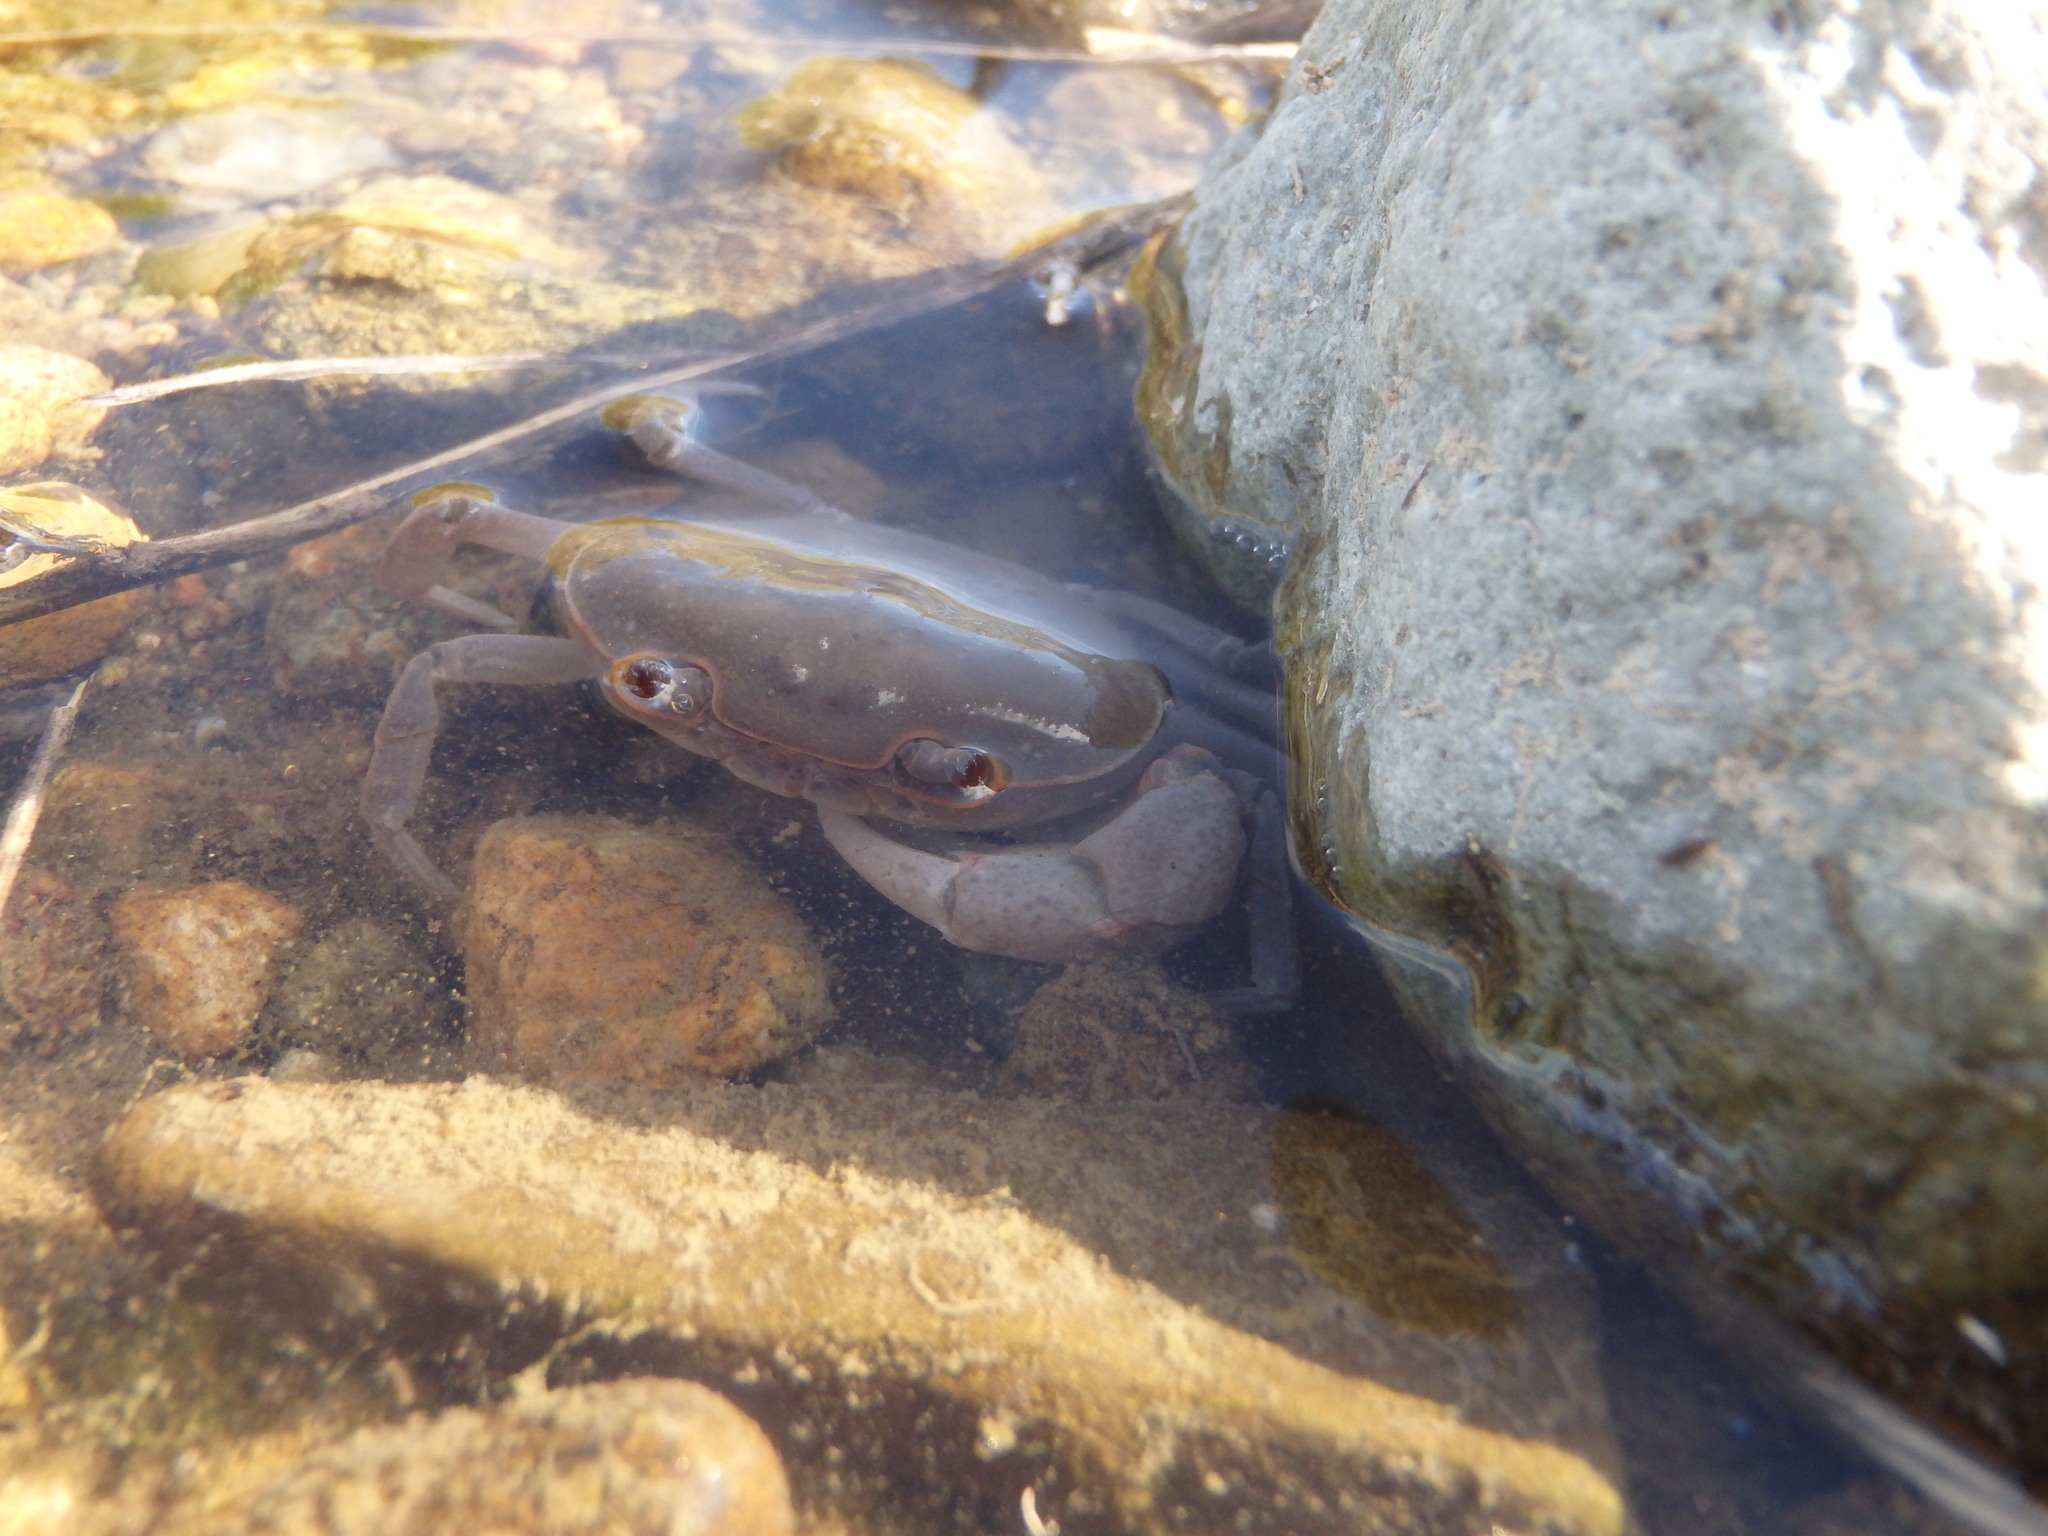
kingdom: Animalia
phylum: Arthropoda
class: Malacostraca
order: Decapoda
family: Potamidae
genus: Geothelphusa
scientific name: Geothelphusa dehaani
